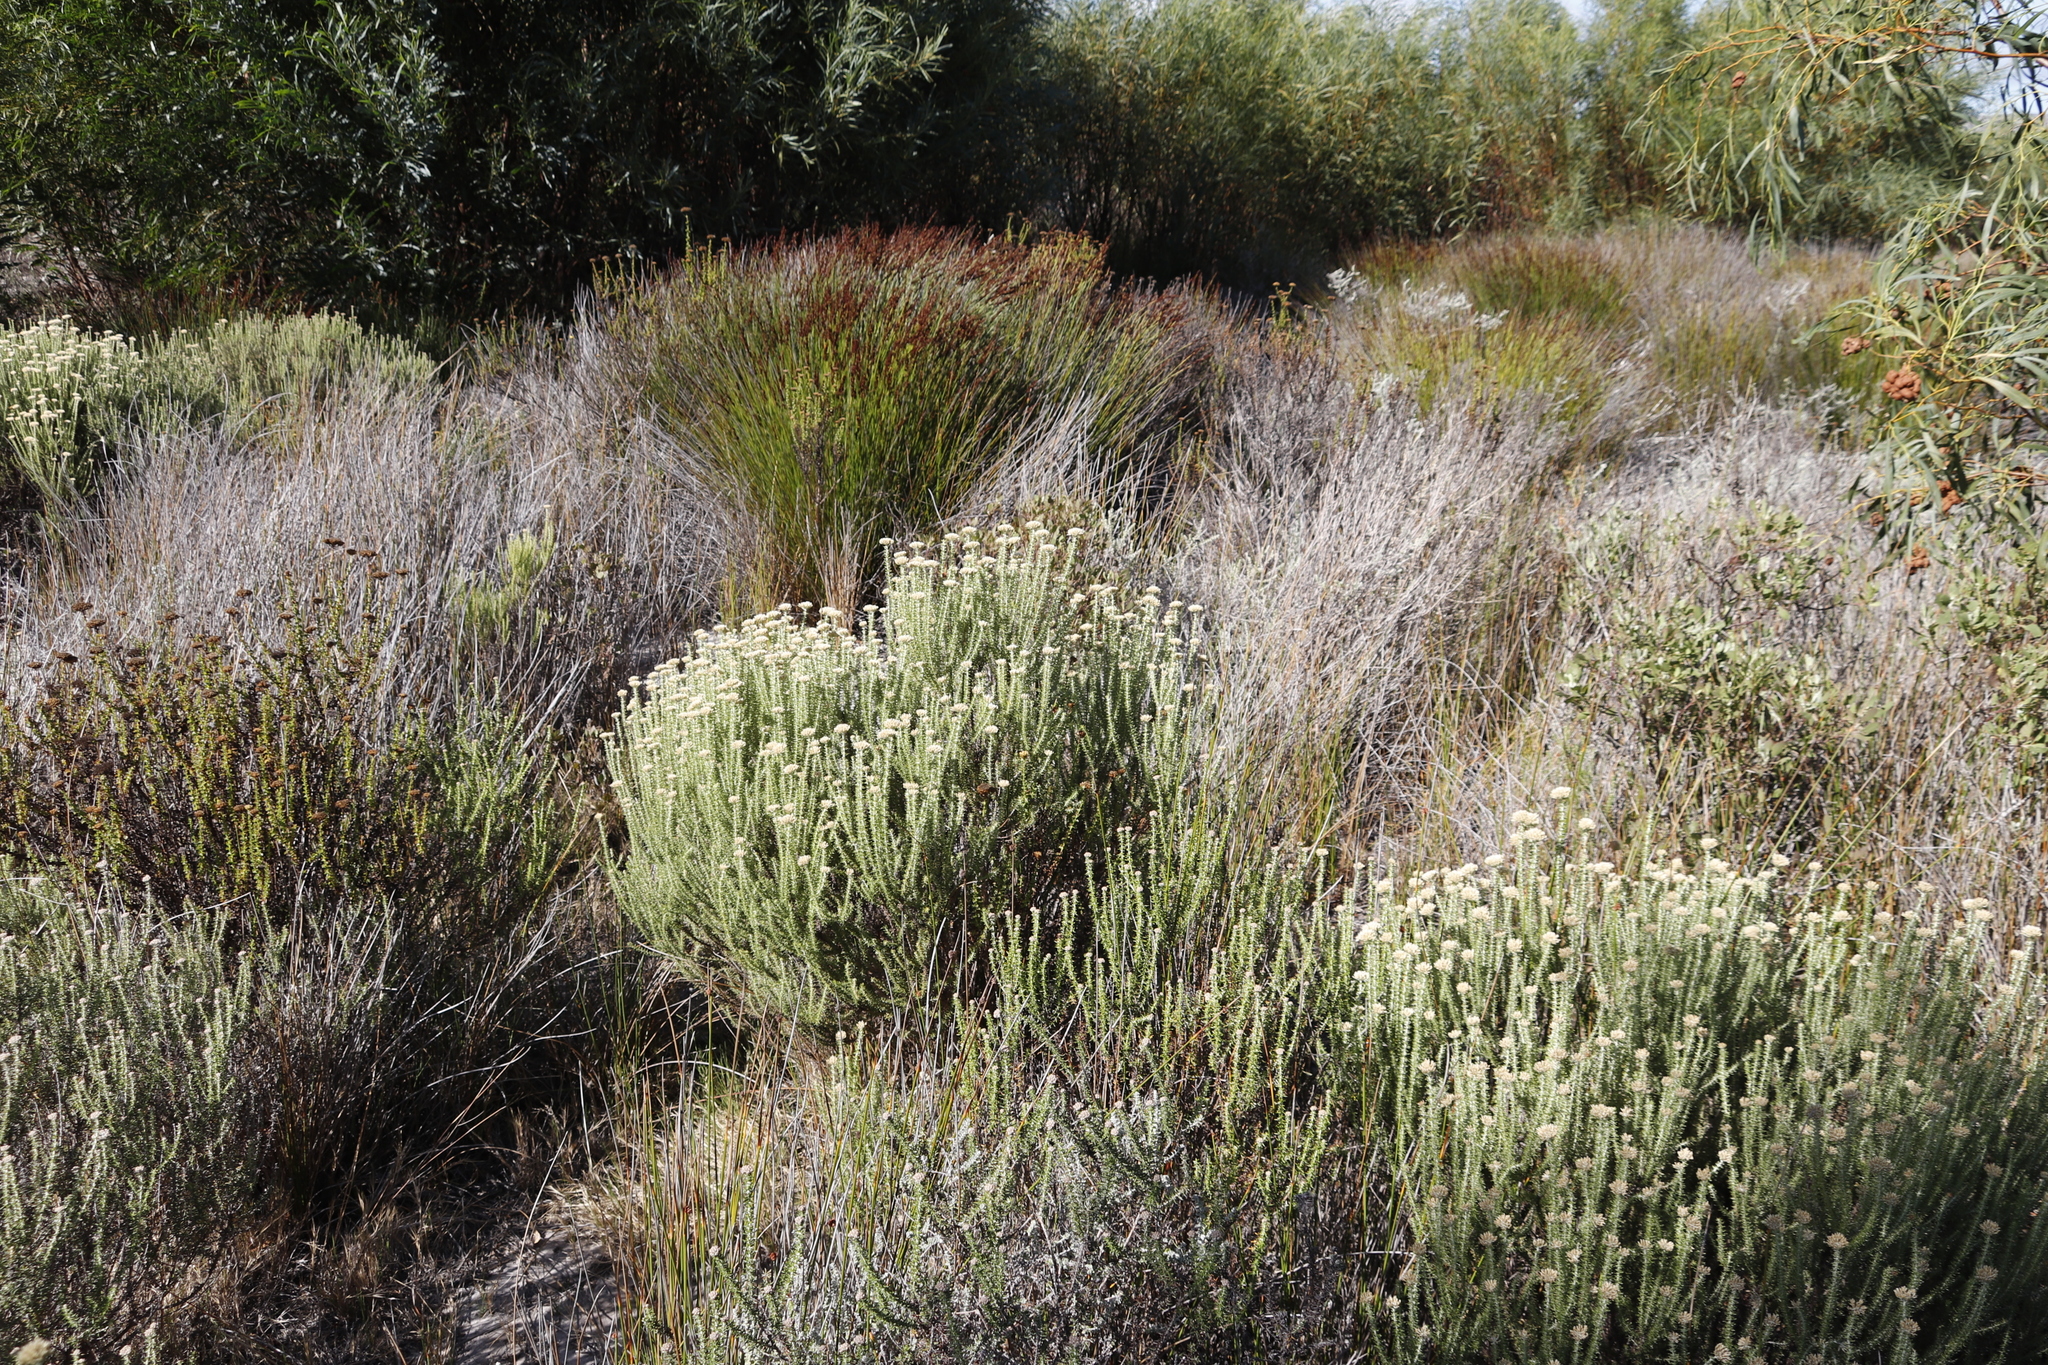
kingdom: Plantae
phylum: Tracheophyta
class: Magnoliopsida
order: Asterales
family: Asteraceae
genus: Metalasia
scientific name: Metalasia muricata
